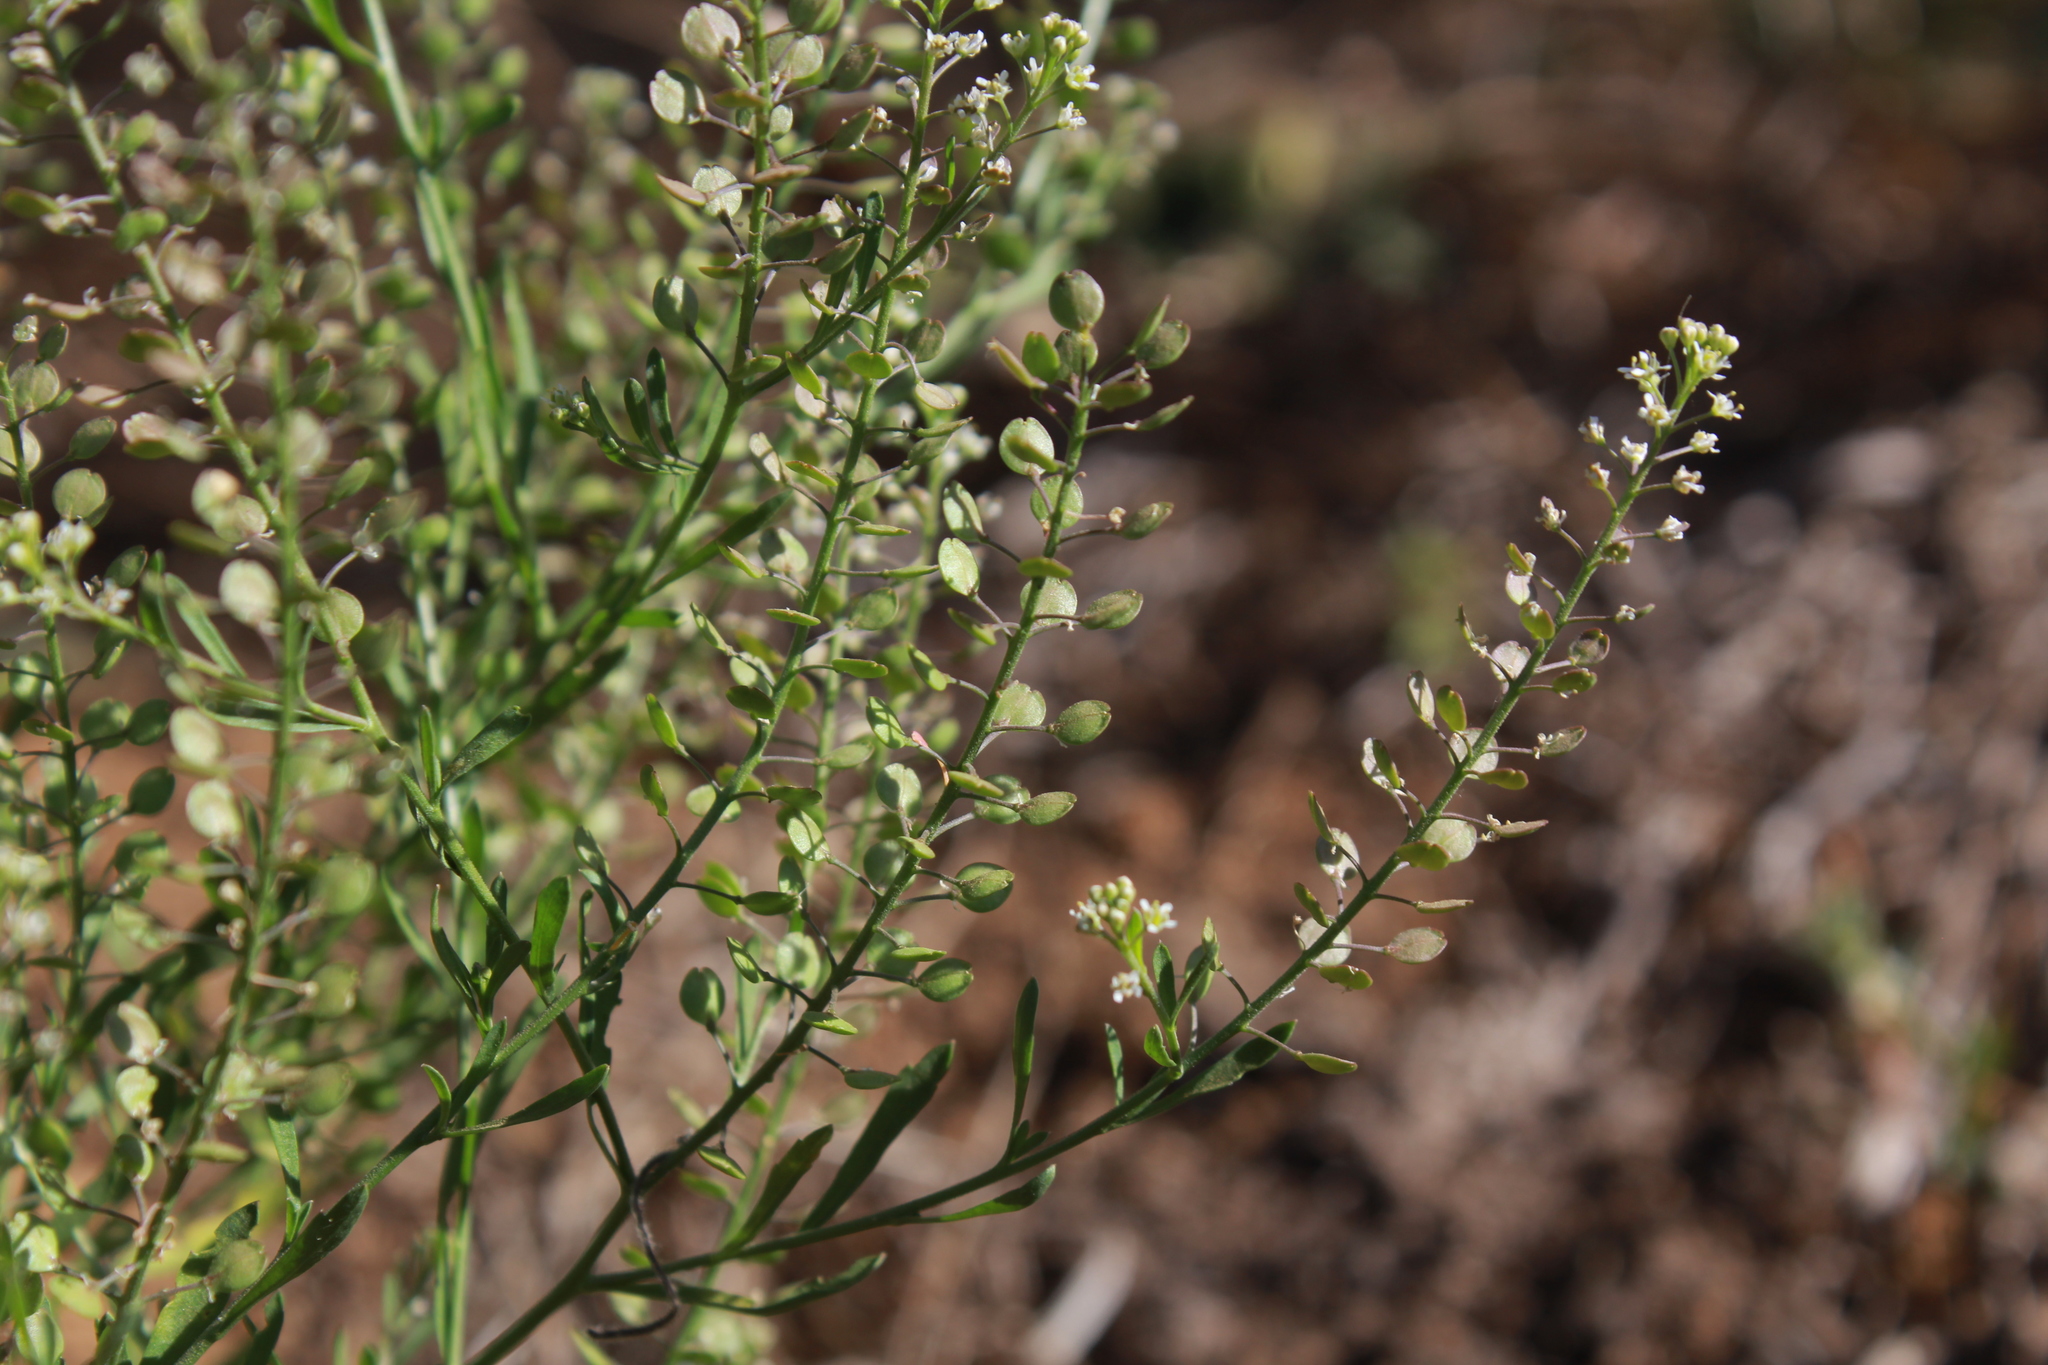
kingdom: Plantae
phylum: Tracheophyta
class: Magnoliopsida
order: Brassicales
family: Brassicaceae
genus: Lepidium
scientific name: Lepidium virginicum
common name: Least pepperwort
